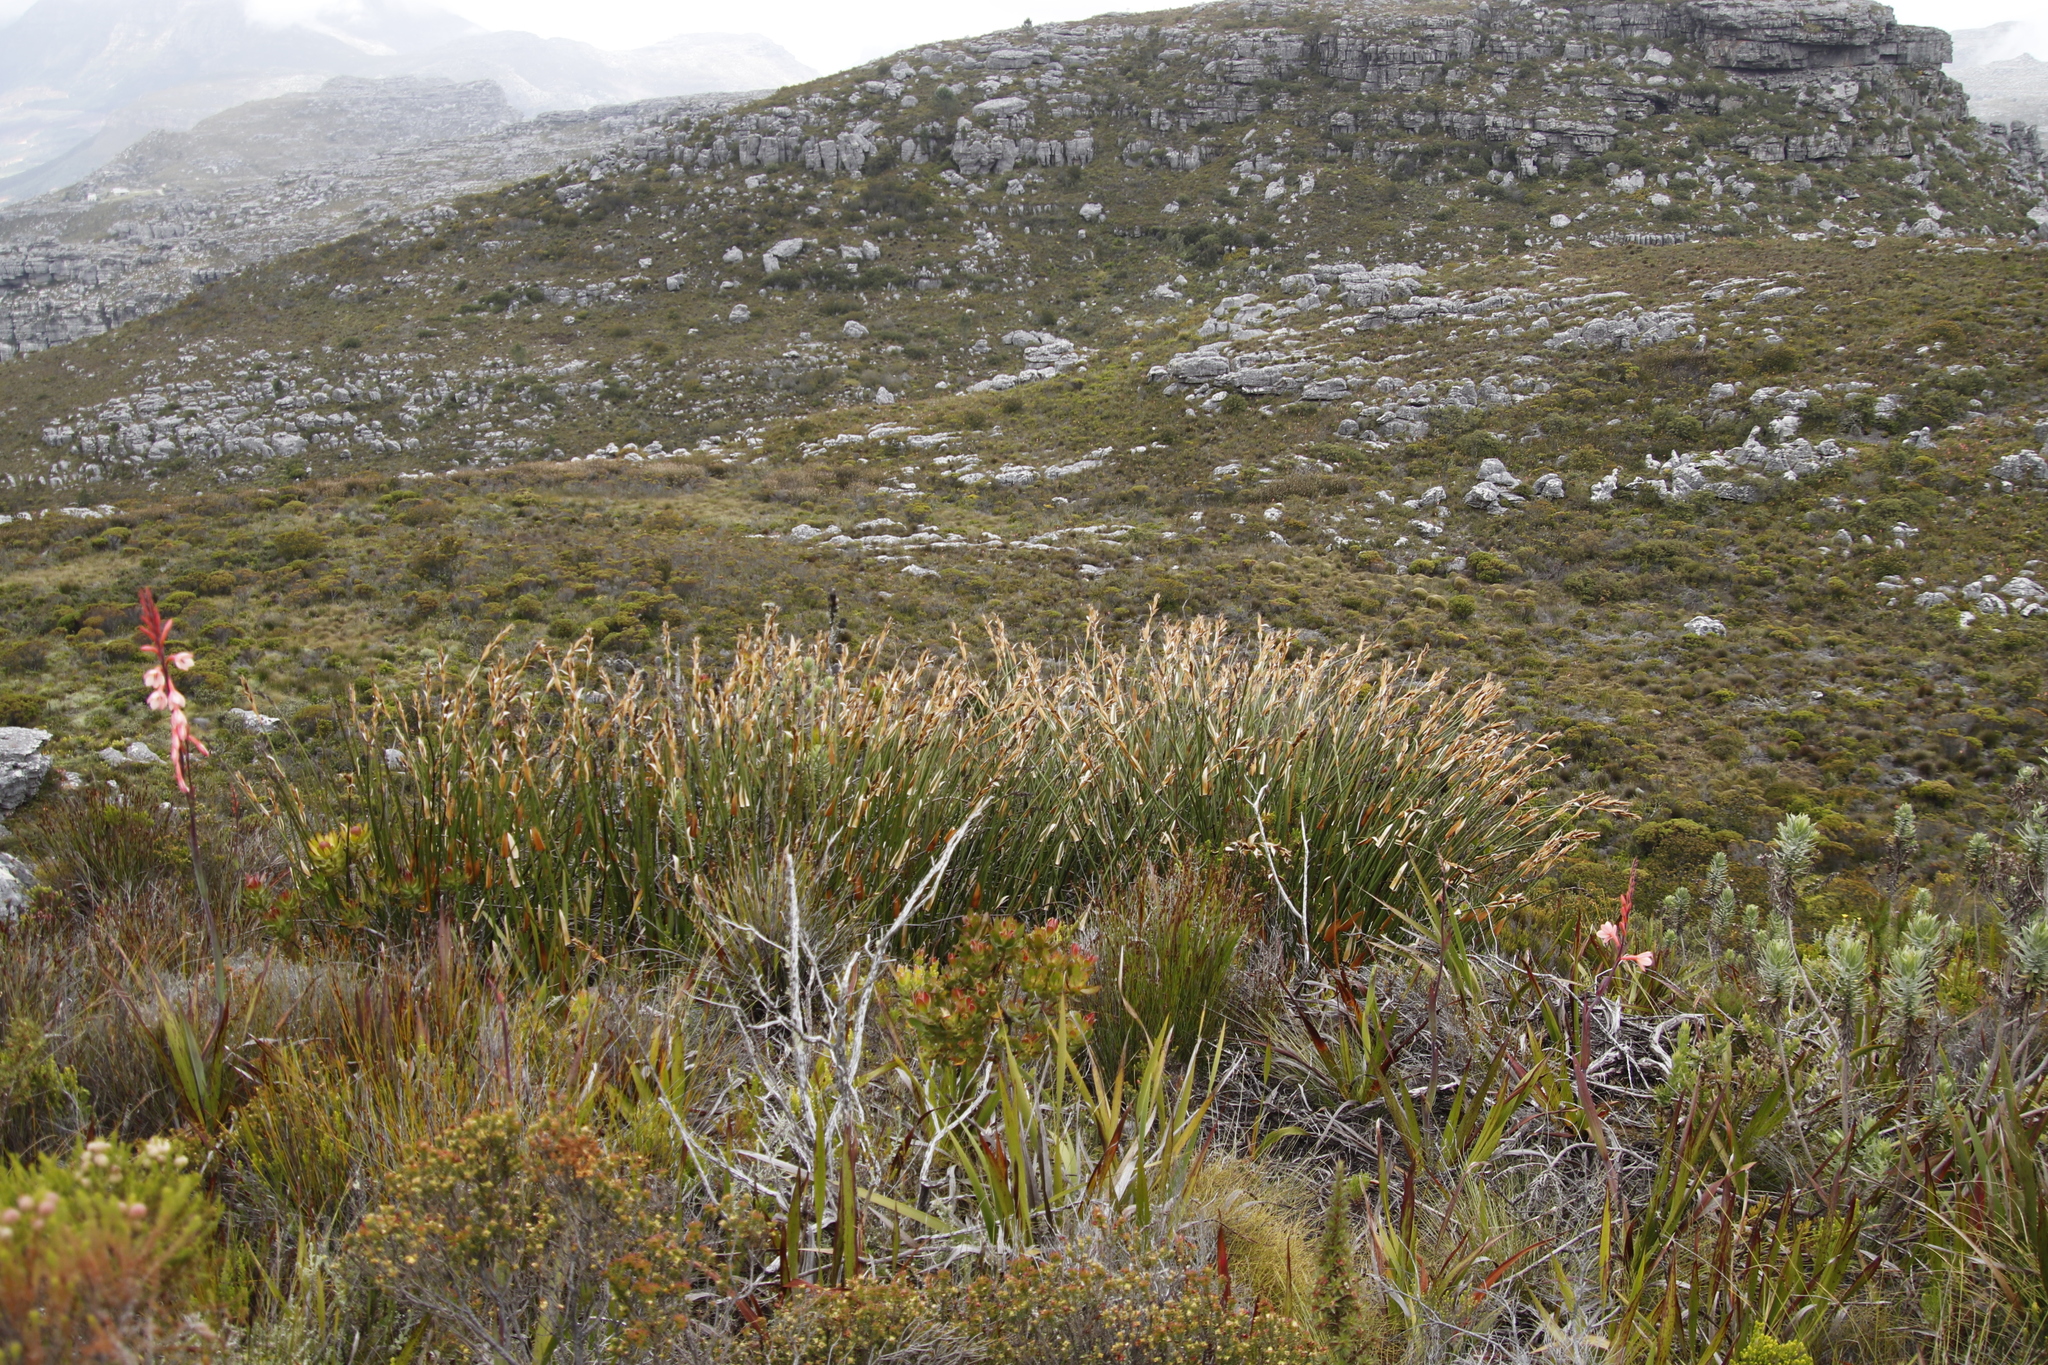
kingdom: Plantae
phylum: Tracheophyta
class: Liliopsida
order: Poales
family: Restionaceae
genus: Elegia
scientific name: Elegia mucronata
